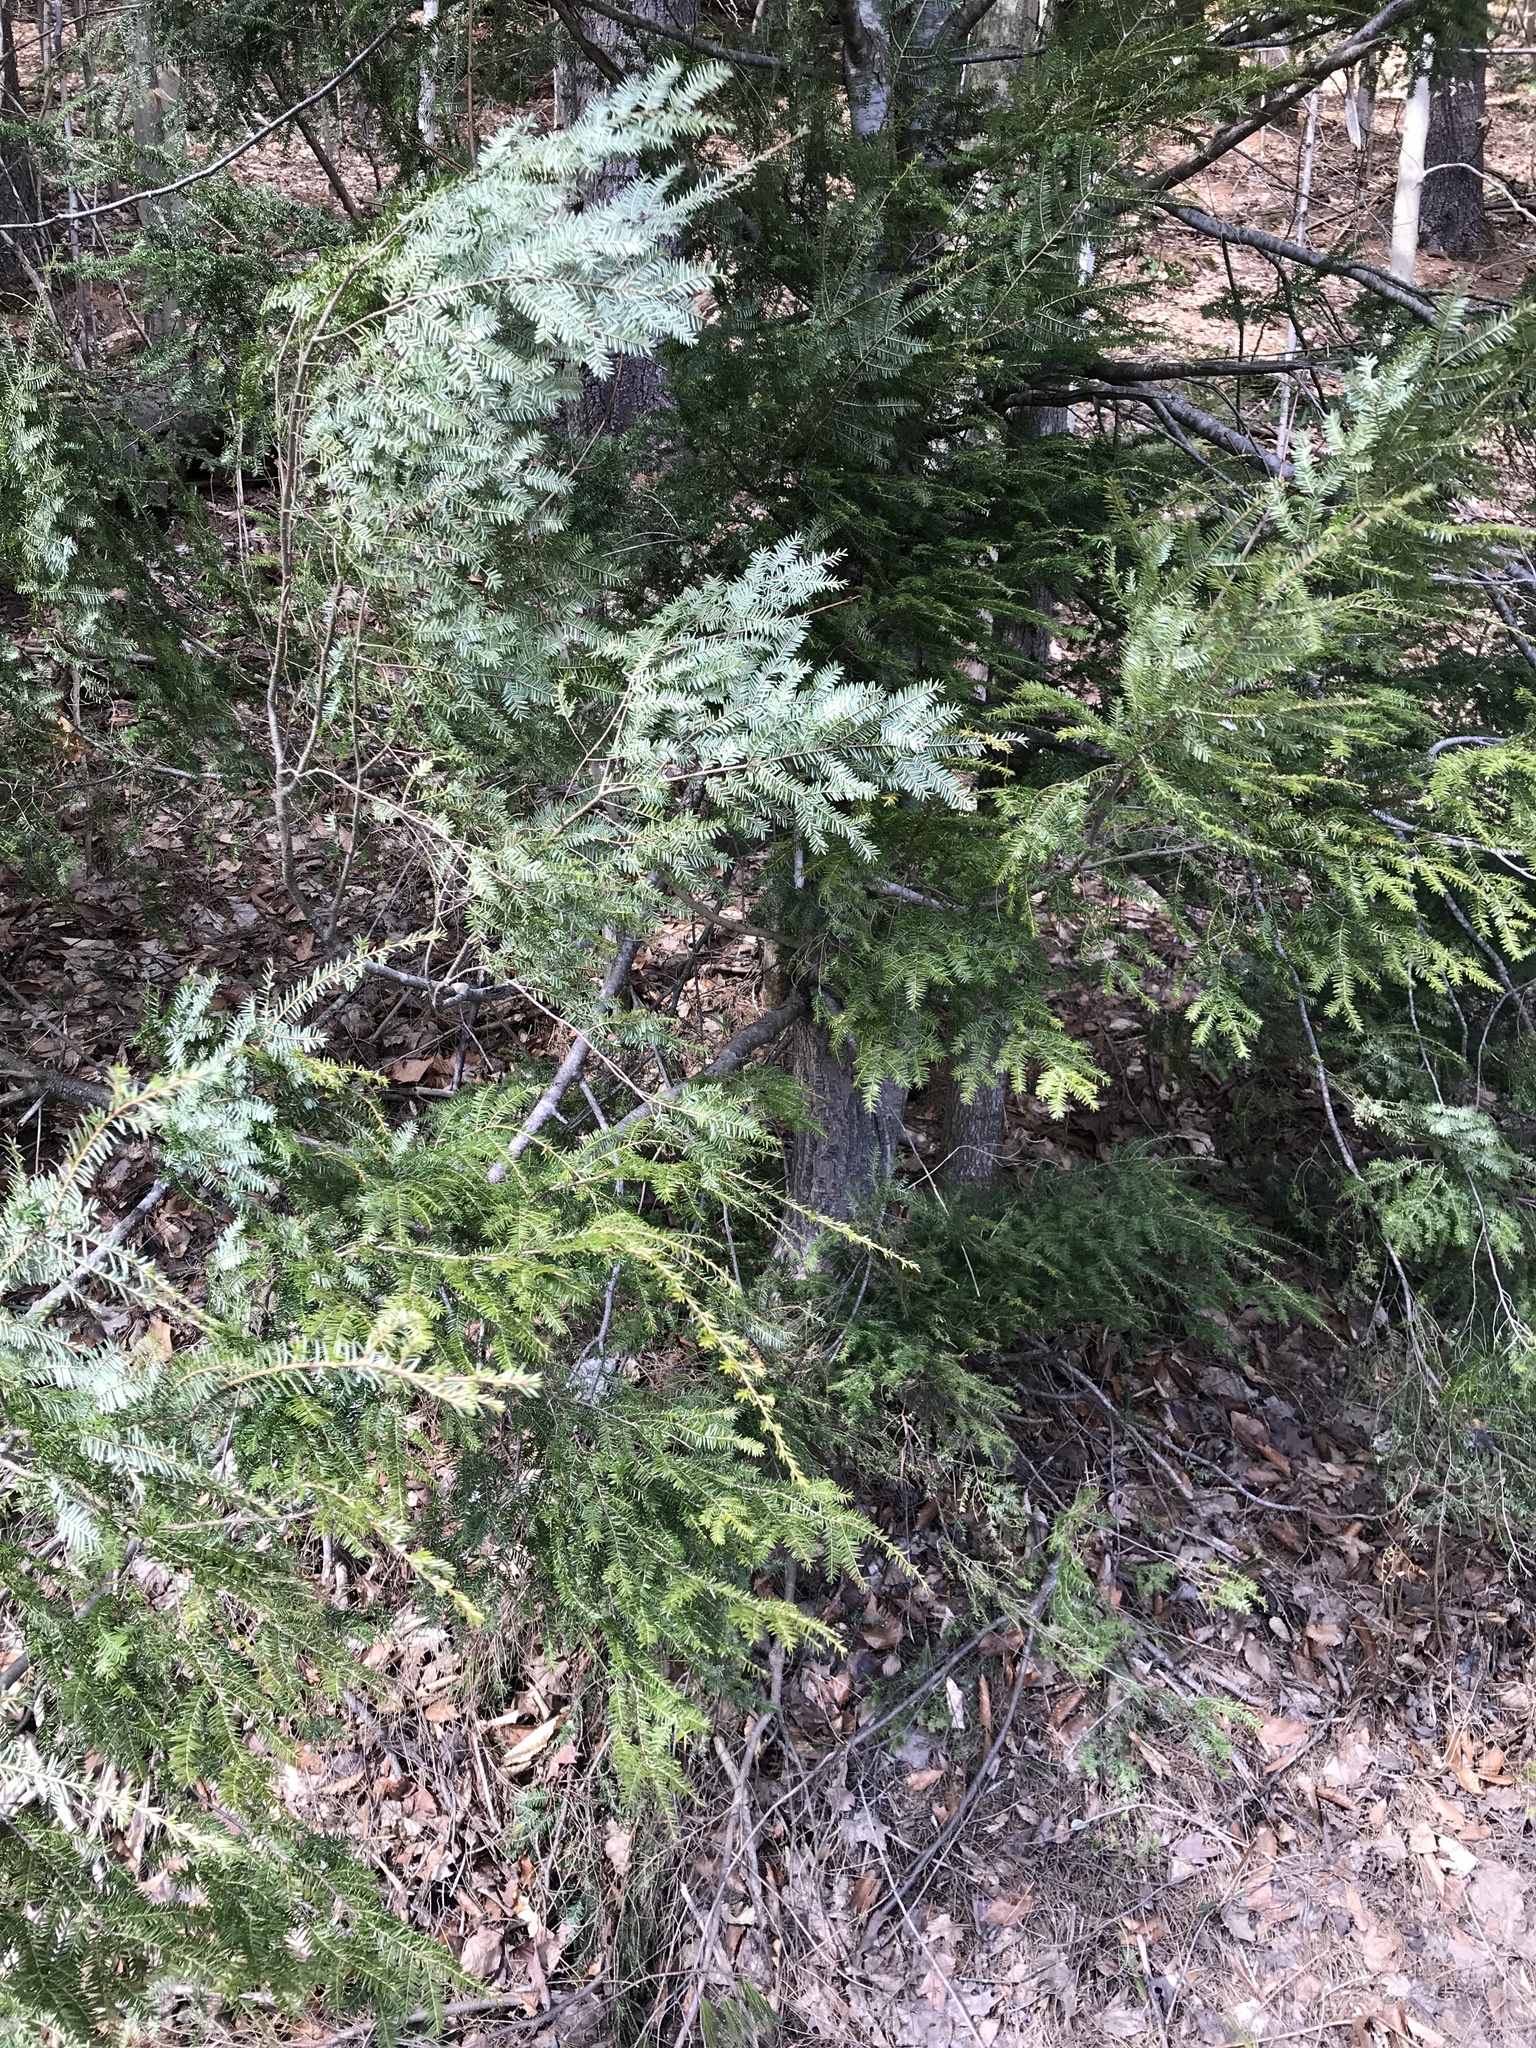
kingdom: Plantae
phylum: Tracheophyta
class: Pinopsida
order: Pinales
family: Pinaceae
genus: Tsuga
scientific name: Tsuga canadensis
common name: Eastern hemlock
